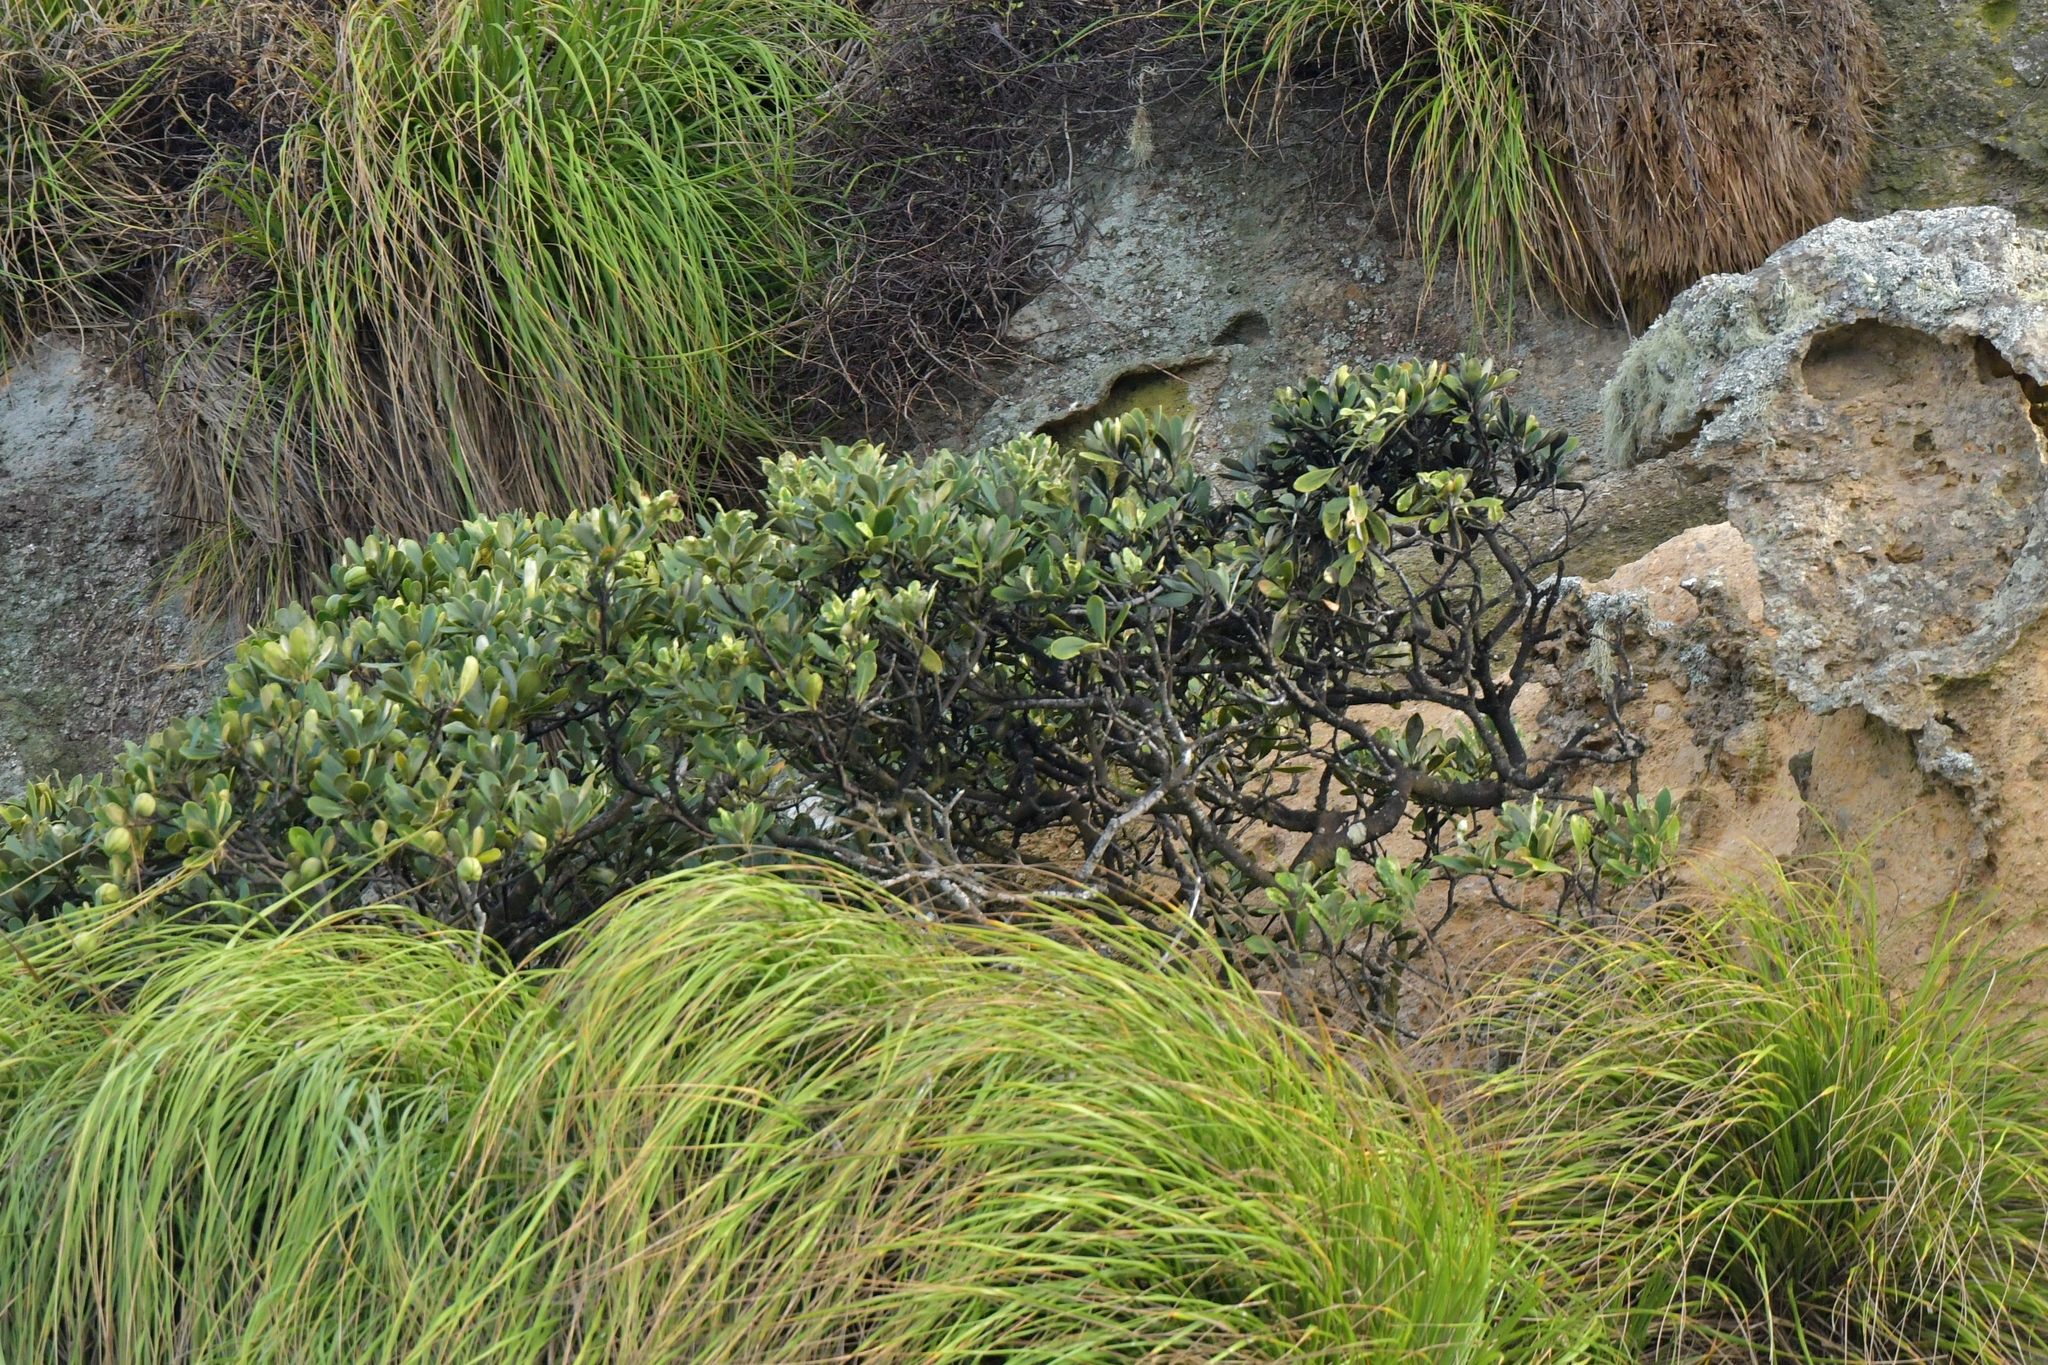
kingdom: Plantae
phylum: Tracheophyta
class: Magnoliopsida
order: Apiales
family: Pittosporaceae
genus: Pittosporum
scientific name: Pittosporum umbellatum
